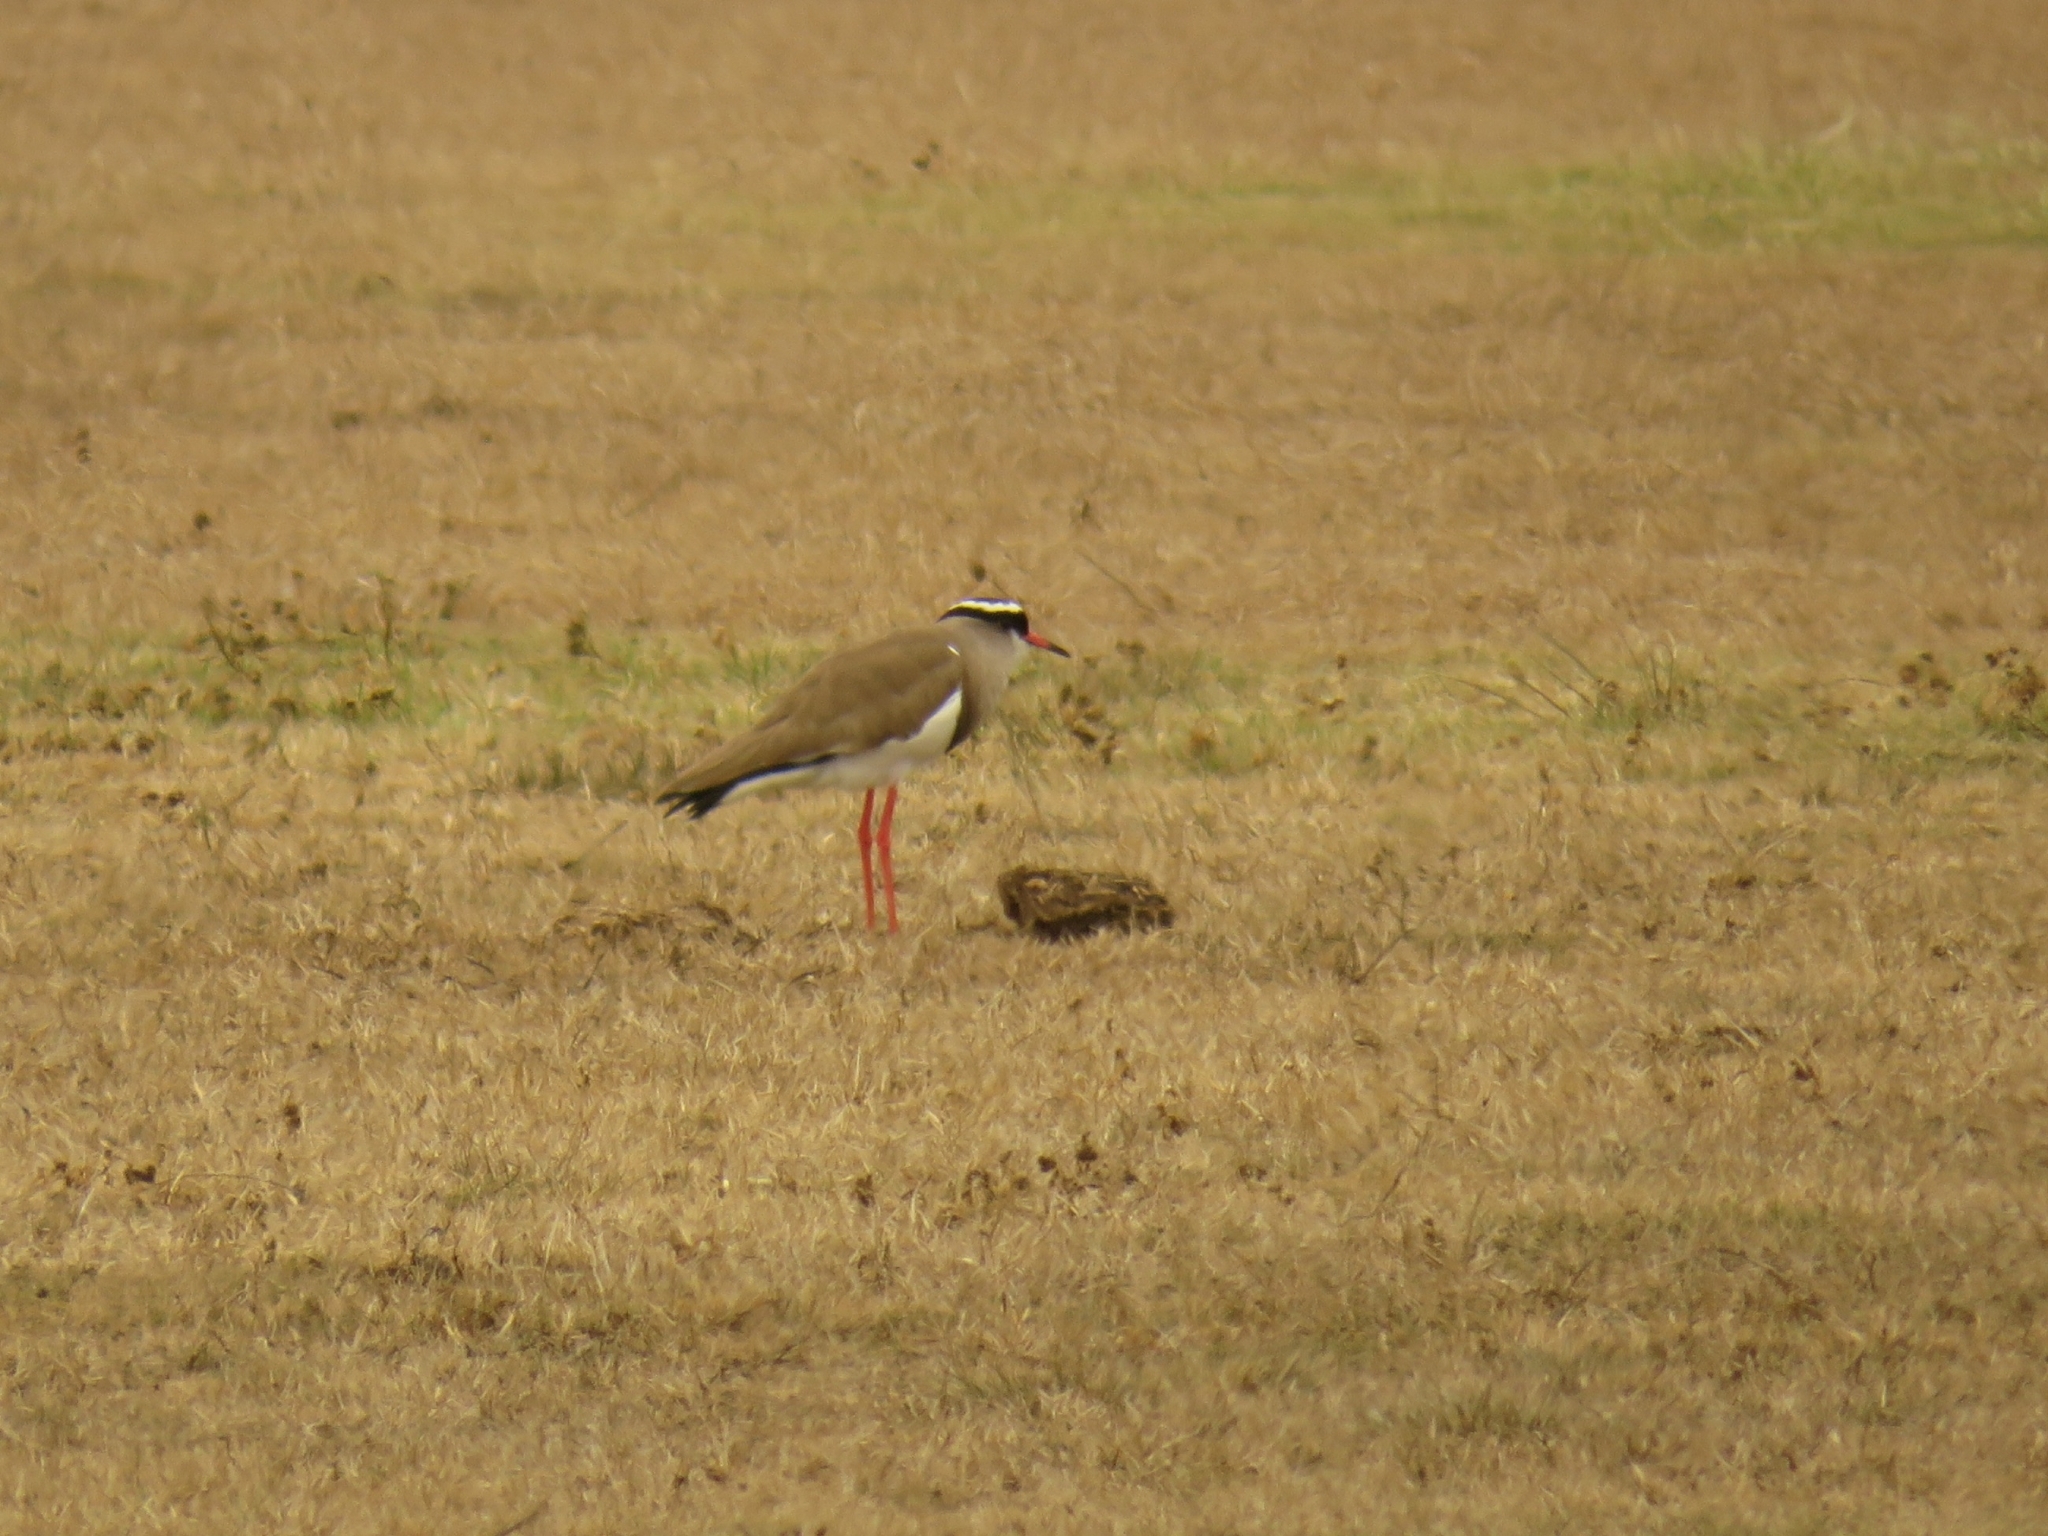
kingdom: Animalia
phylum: Chordata
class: Aves
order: Charadriiformes
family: Charadriidae
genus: Vanellus
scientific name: Vanellus coronatus
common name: Crowned lapwing
